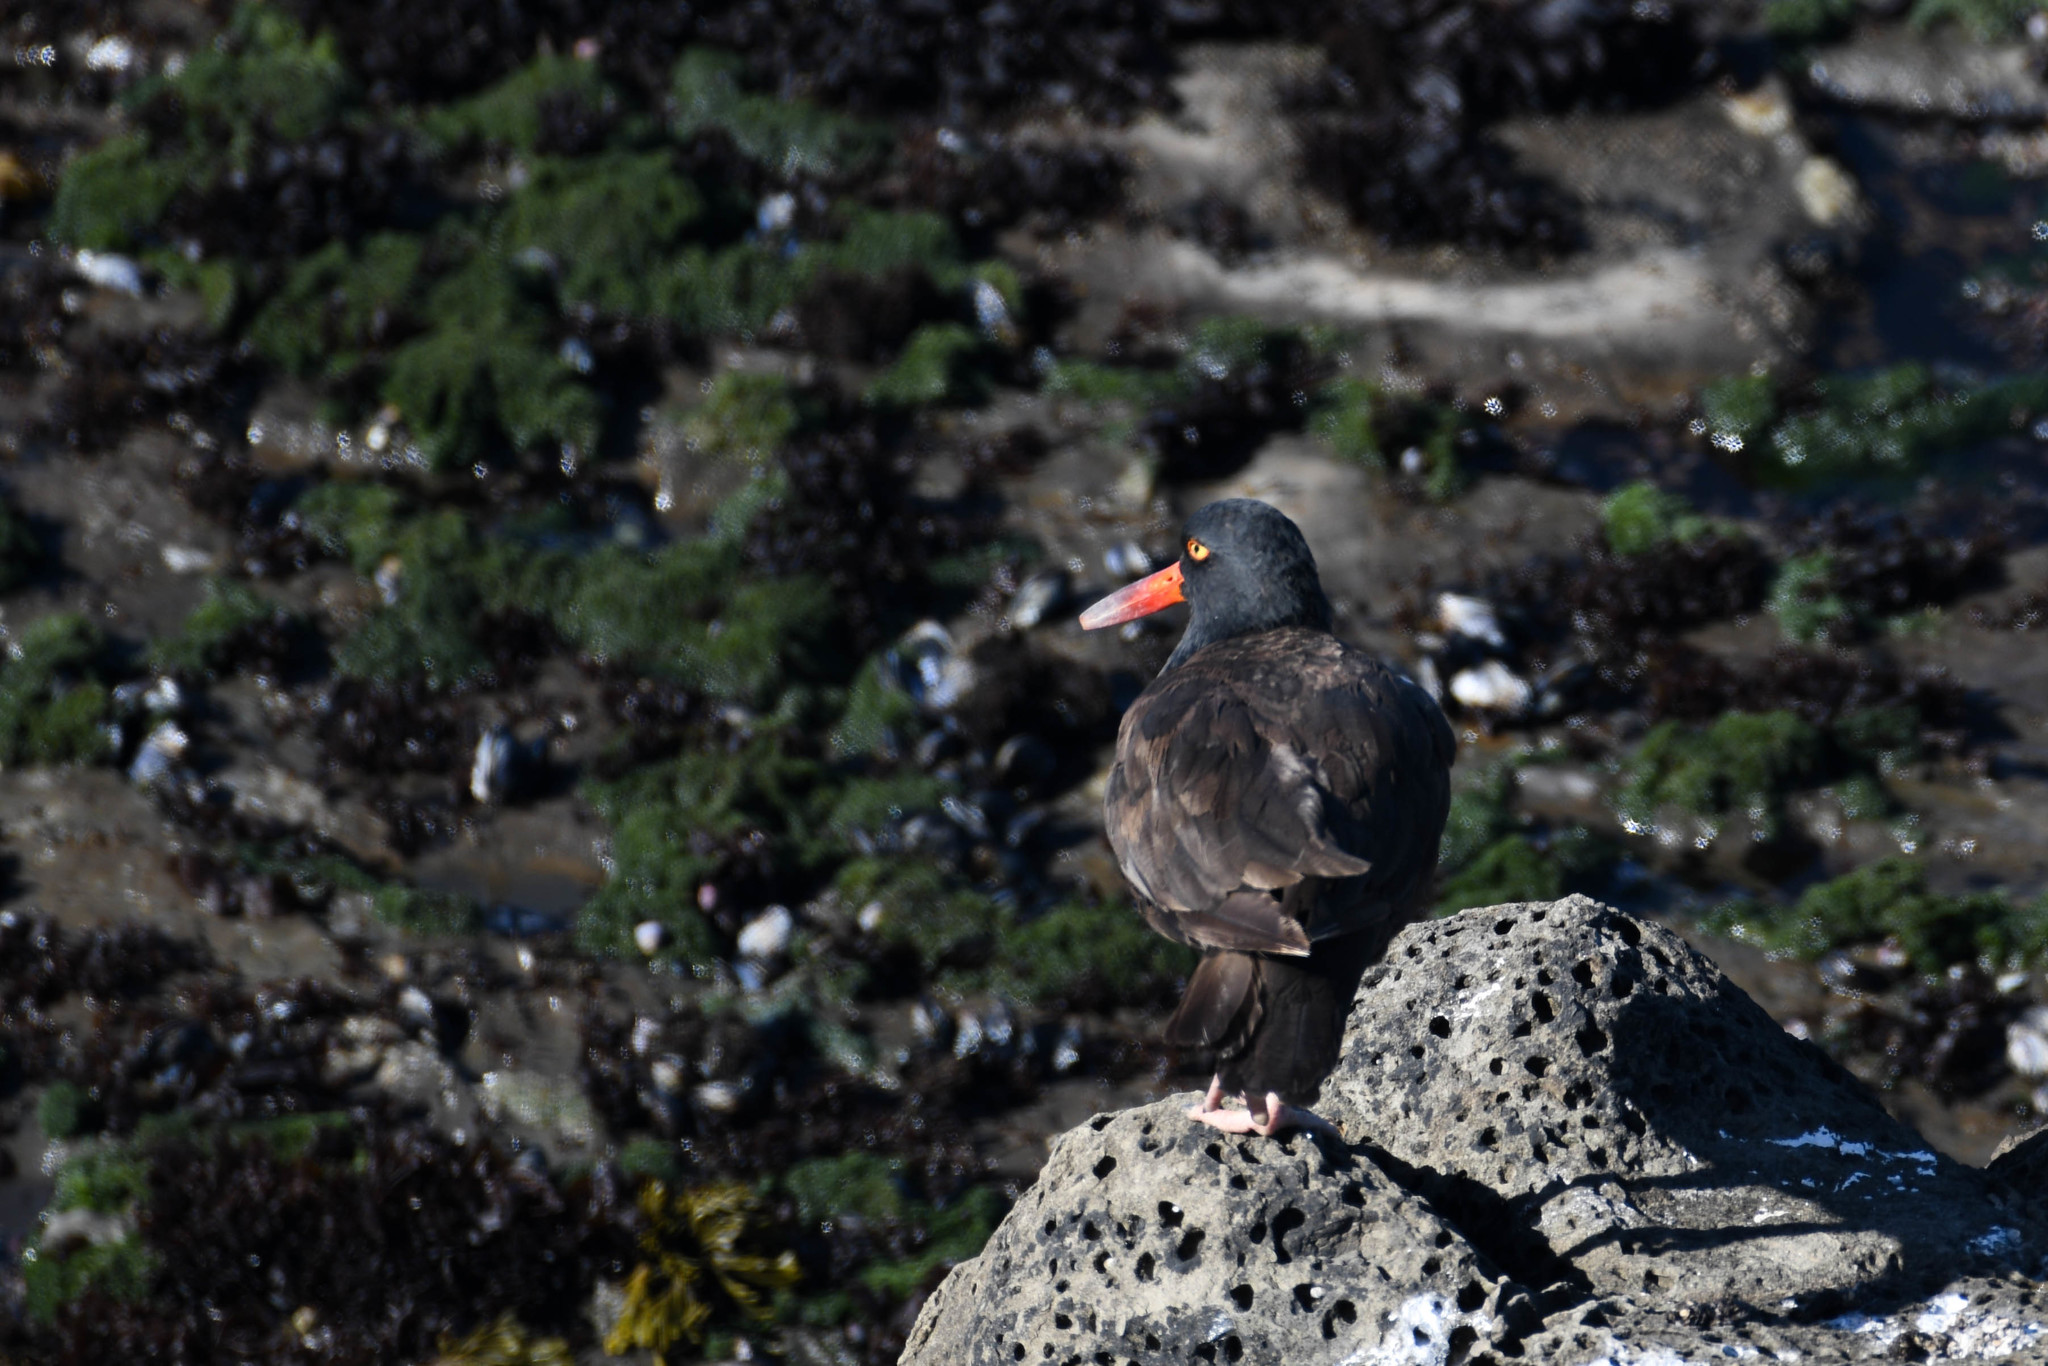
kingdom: Animalia
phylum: Chordata
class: Aves
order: Charadriiformes
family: Haematopodidae
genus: Haematopus
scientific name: Haematopus bachmani
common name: Black oystercatcher
